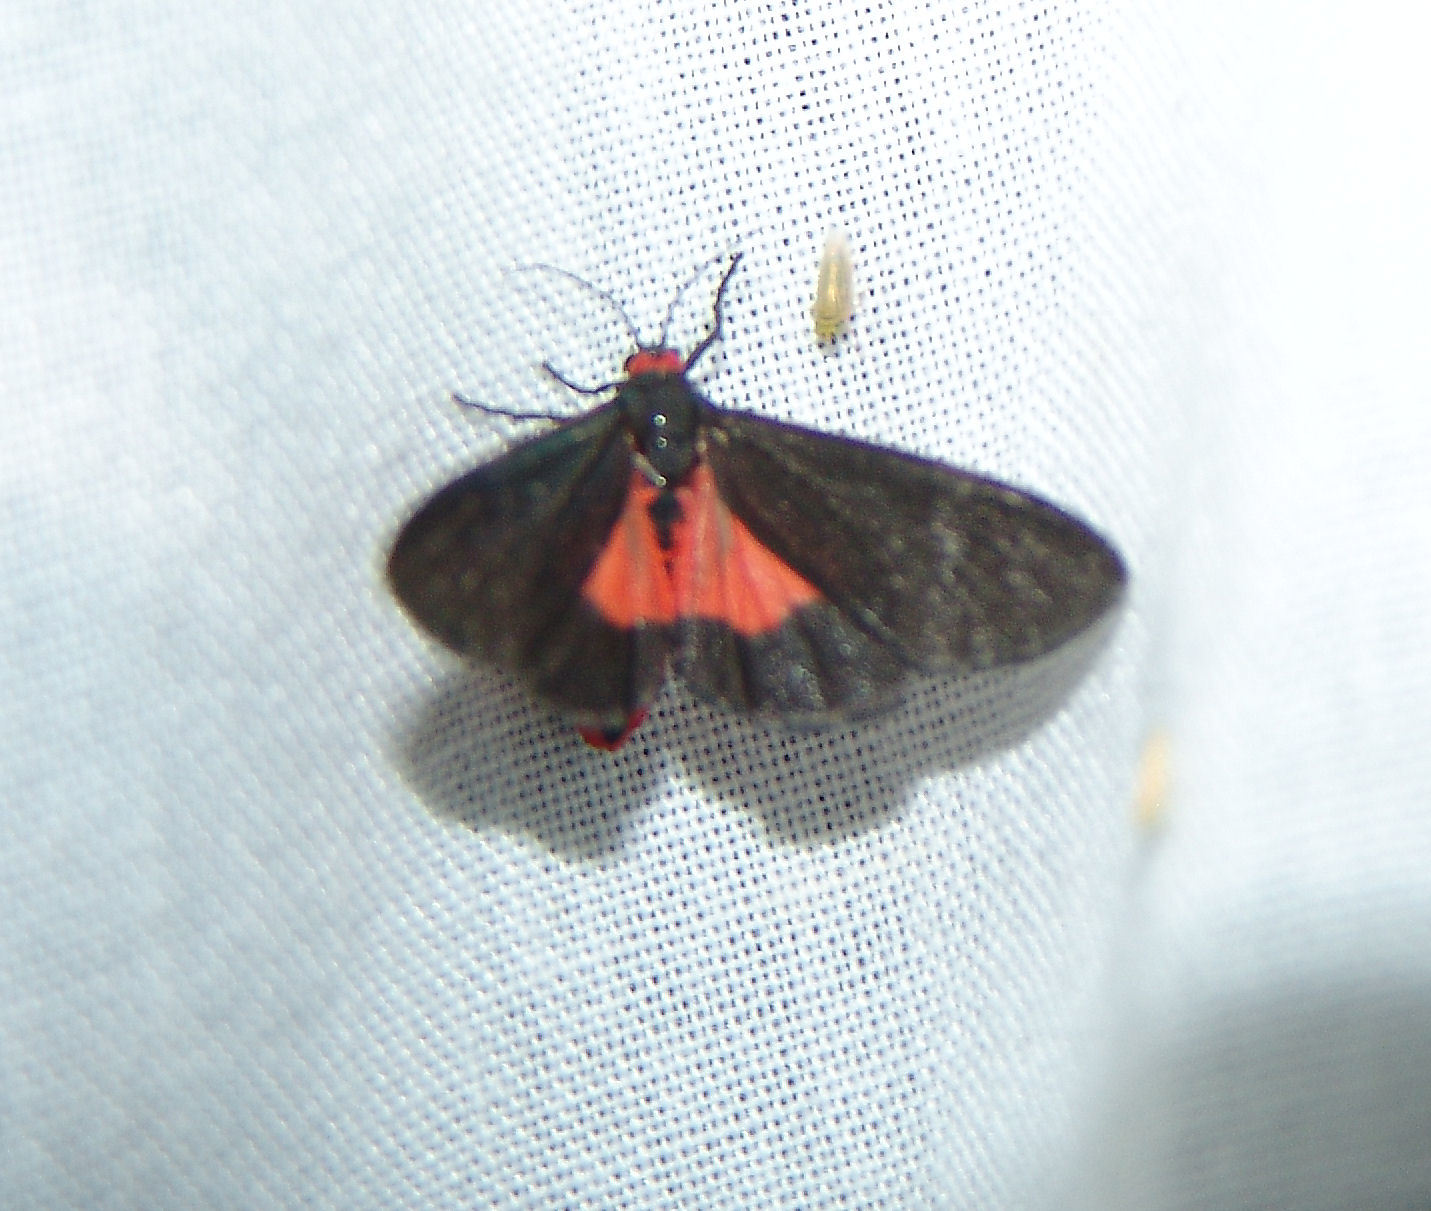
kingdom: Animalia
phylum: Arthropoda
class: Insecta
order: Lepidoptera
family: Erebidae
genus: Virbia
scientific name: Virbia laeta
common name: Joyful holomelina moth
